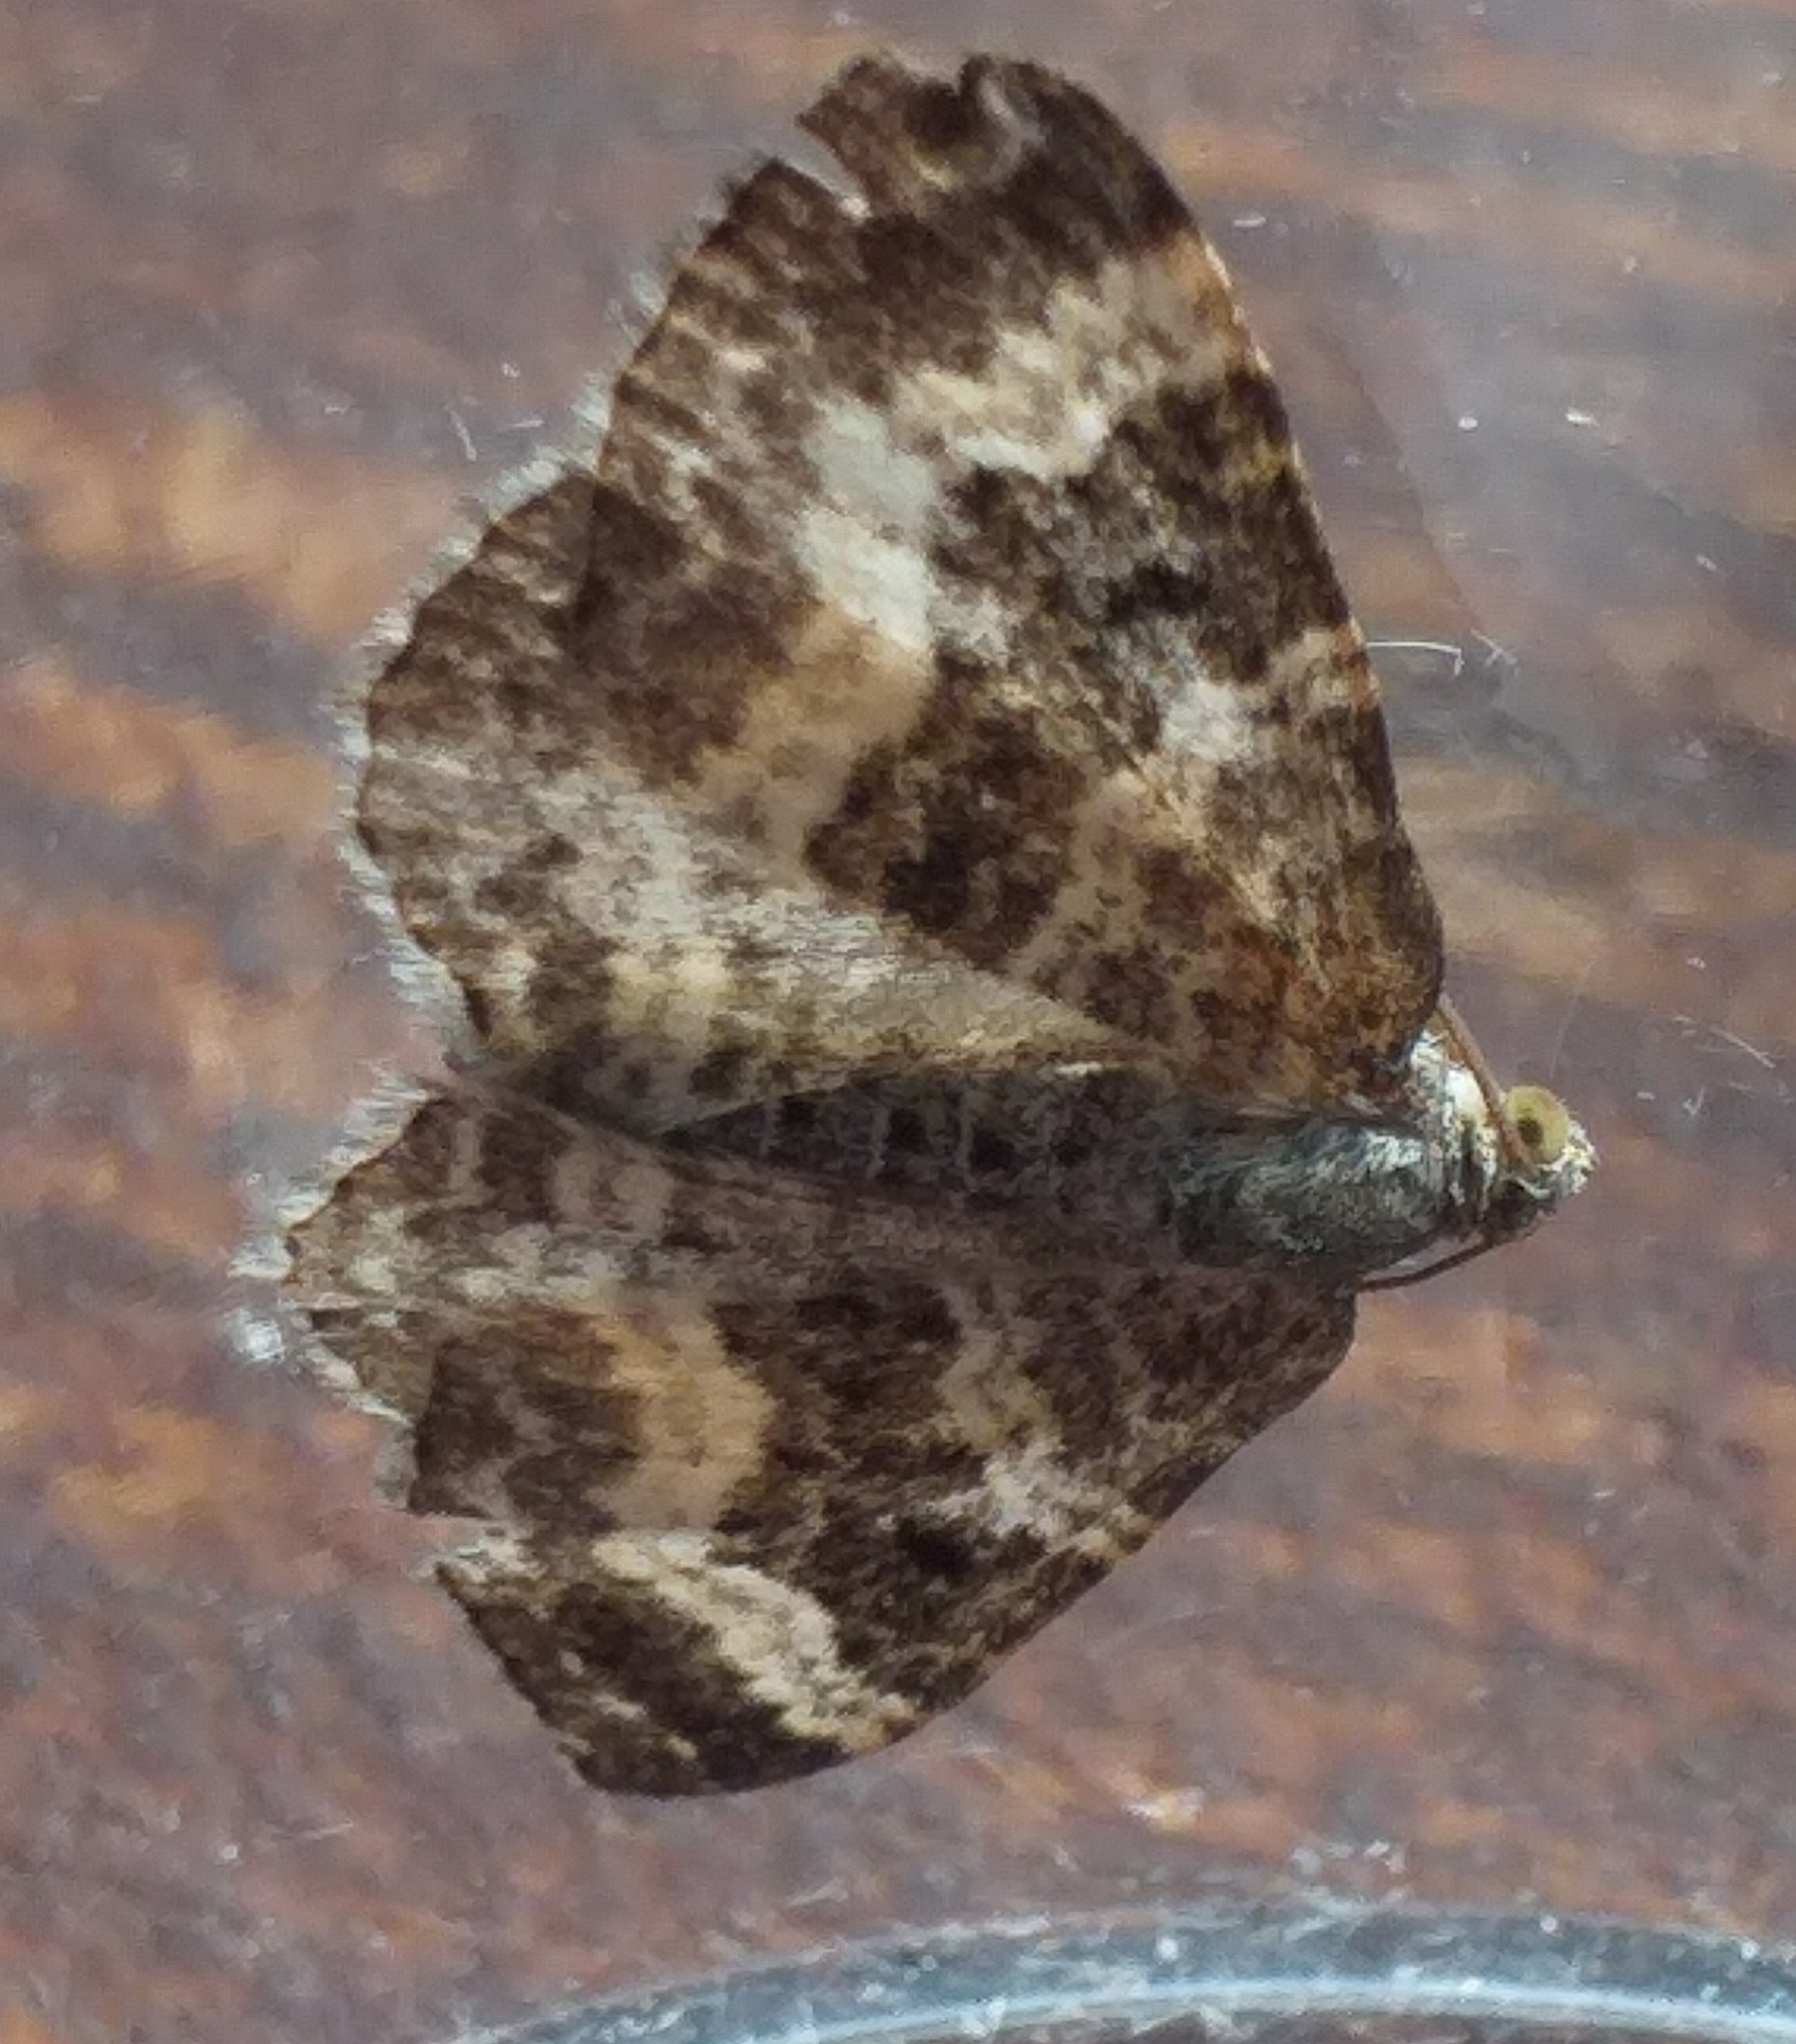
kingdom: Animalia
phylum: Arthropoda
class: Insecta
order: Lepidoptera
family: Geometridae
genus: Epirrhoe
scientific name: Epirrhoe alternata
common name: Common carpet
